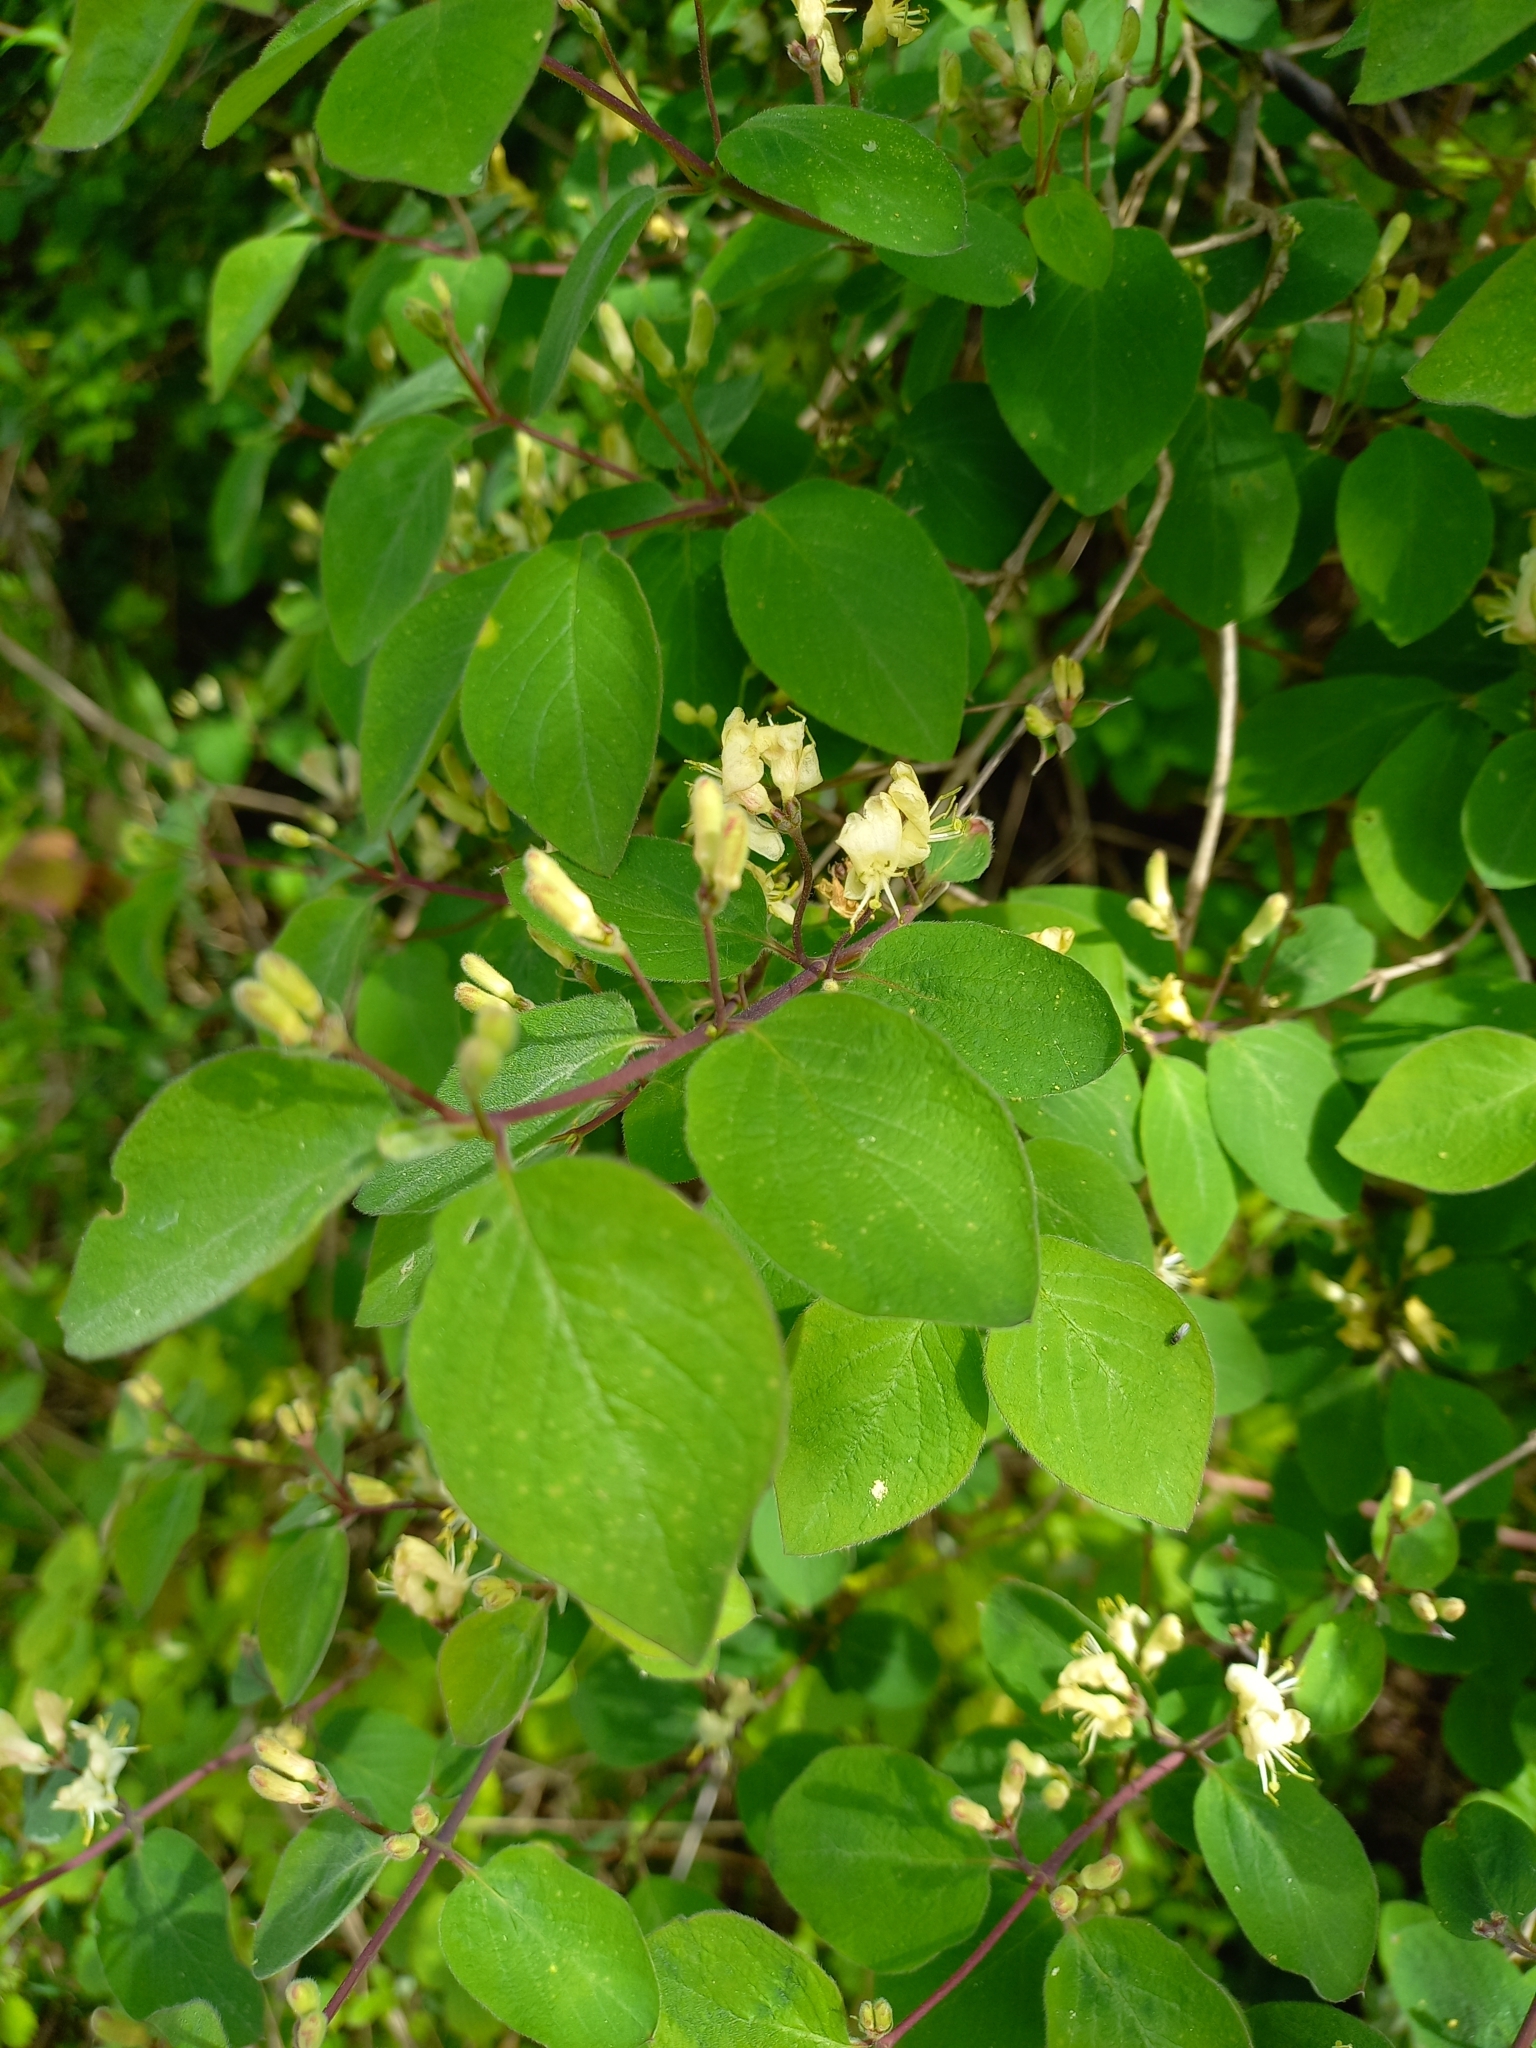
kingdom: Plantae
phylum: Tracheophyta
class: Magnoliopsida
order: Dipsacales
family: Caprifoliaceae
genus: Lonicera
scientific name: Lonicera xylosteum
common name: Fly honeysuckle
